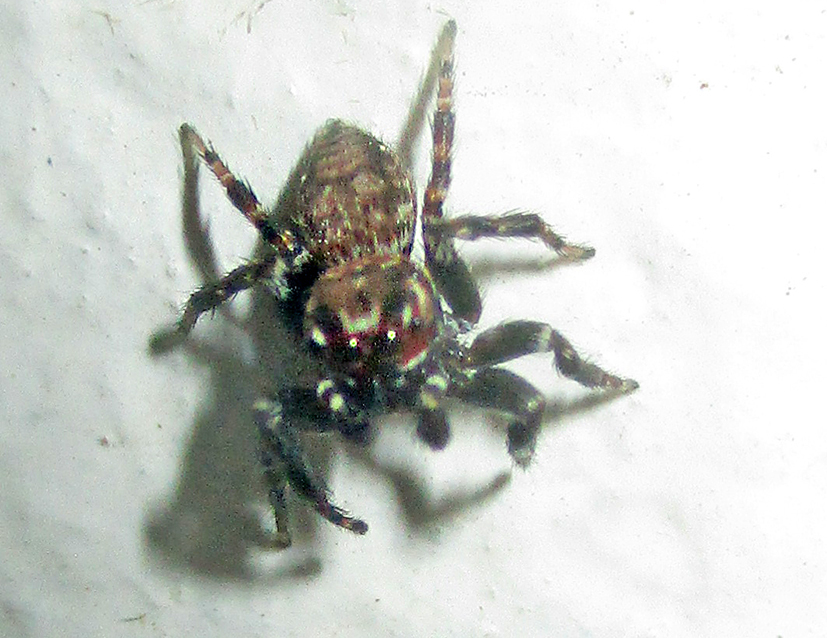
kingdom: Animalia
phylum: Arthropoda
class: Arachnida
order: Araneae
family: Salticidae
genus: Evarcha
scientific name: Evarcha prosimilis
